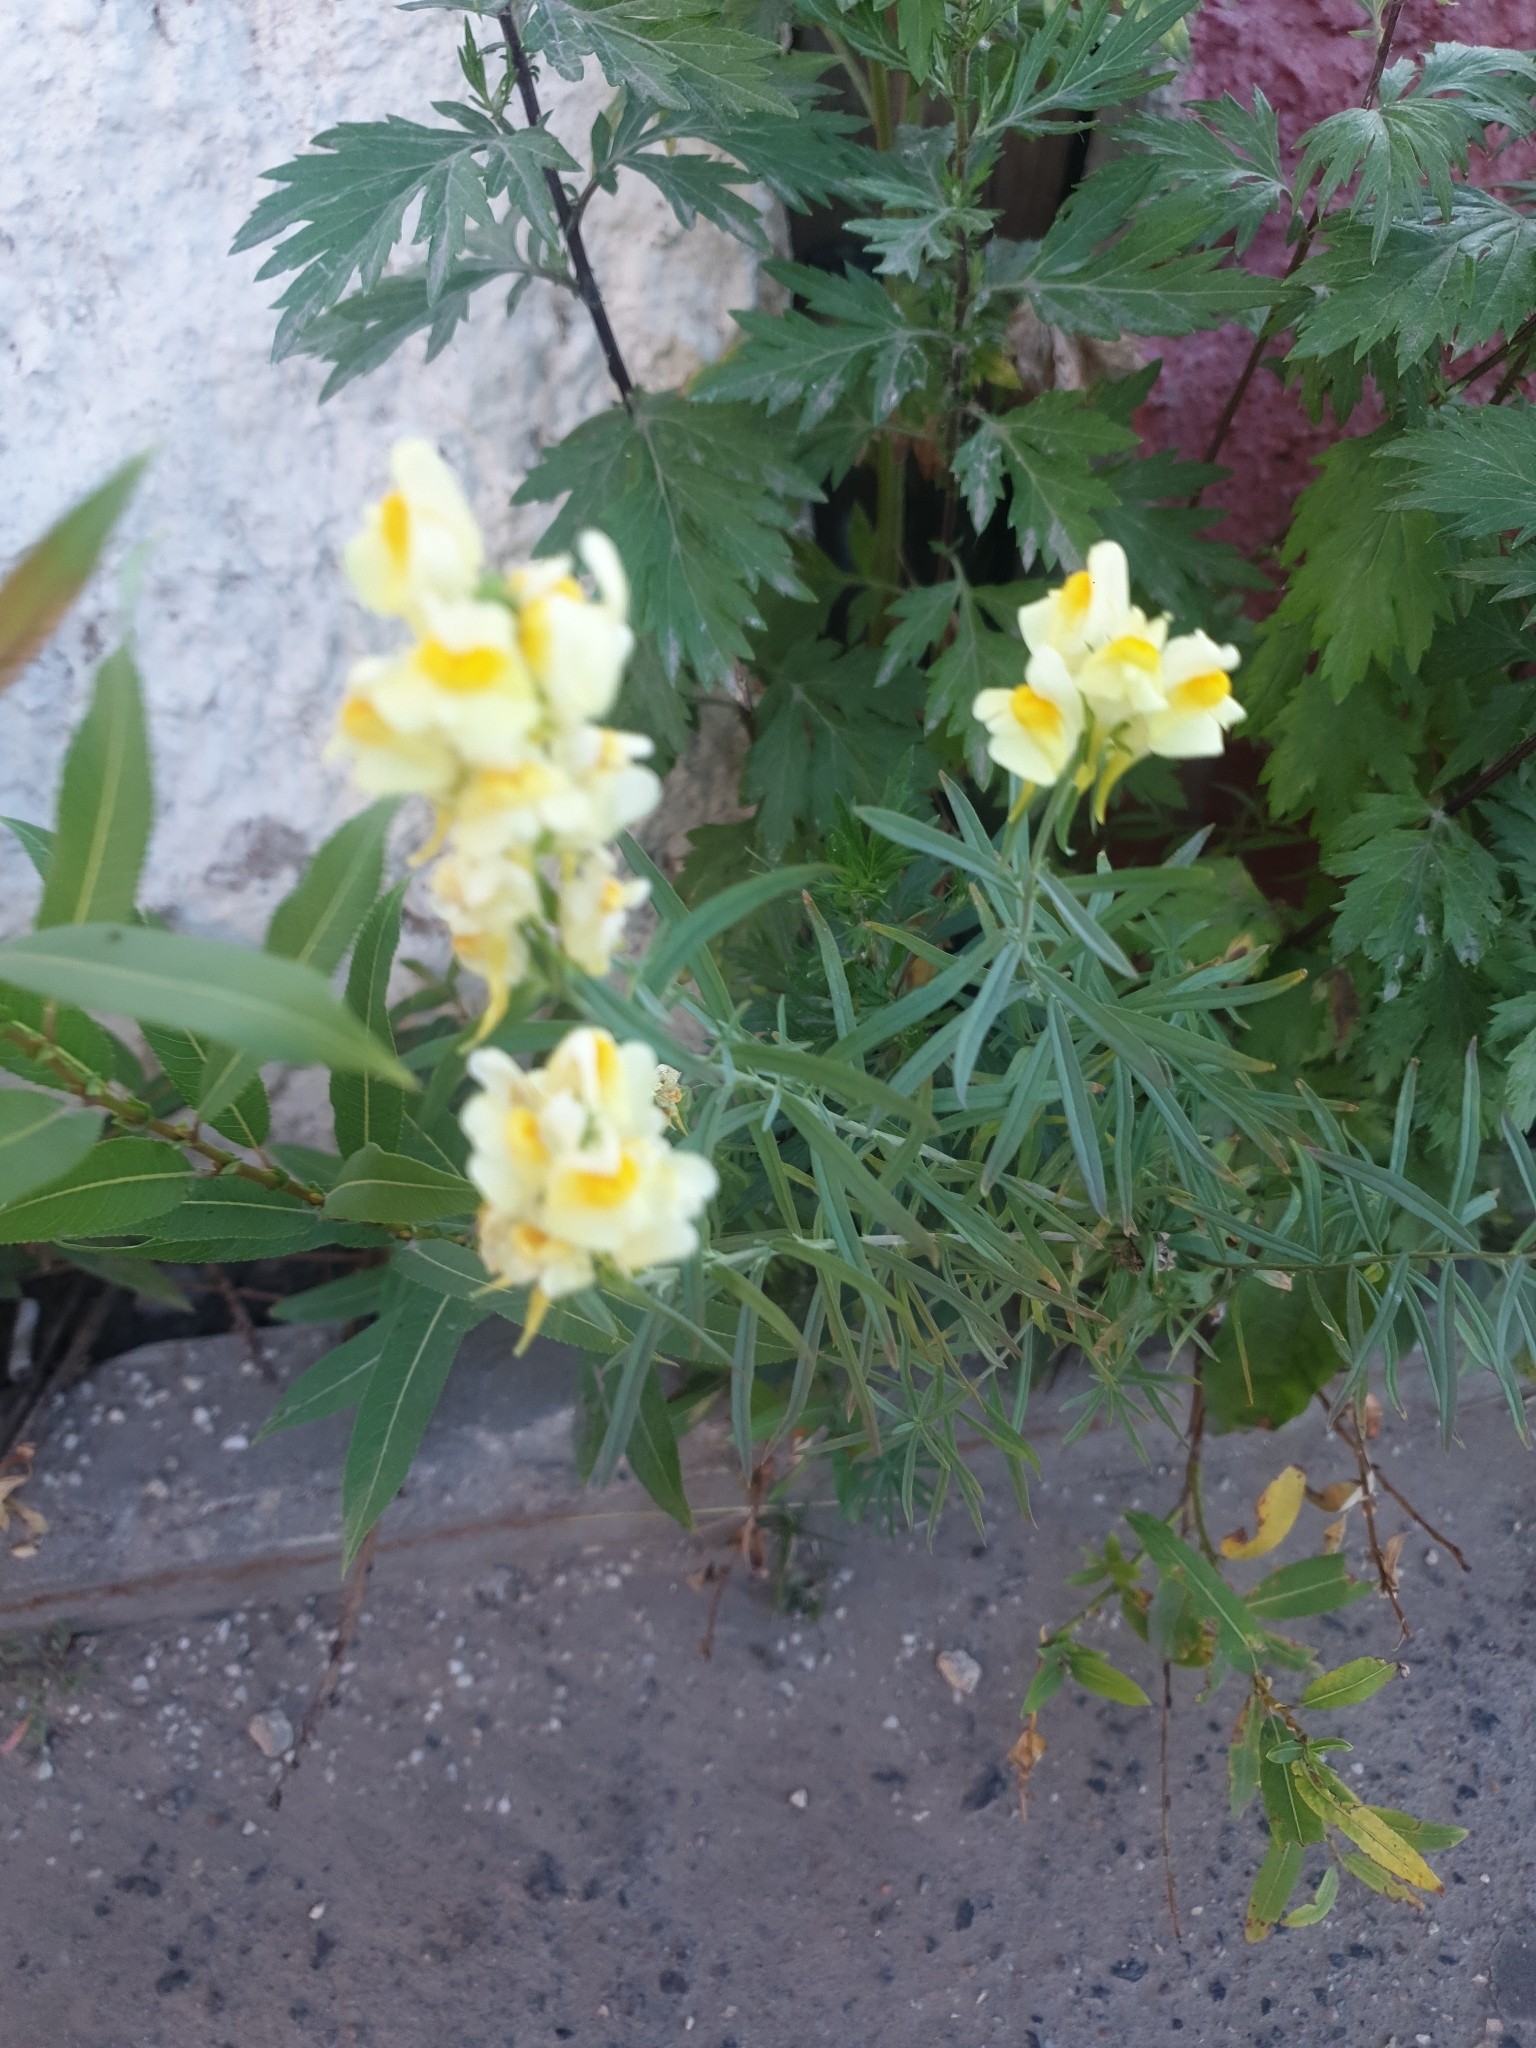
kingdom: Plantae
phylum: Tracheophyta
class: Magnoliopsida
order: Lamiales
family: Plantaginaceae
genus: Linaria
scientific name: Linaria vulgaris
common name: Butter and eggs
